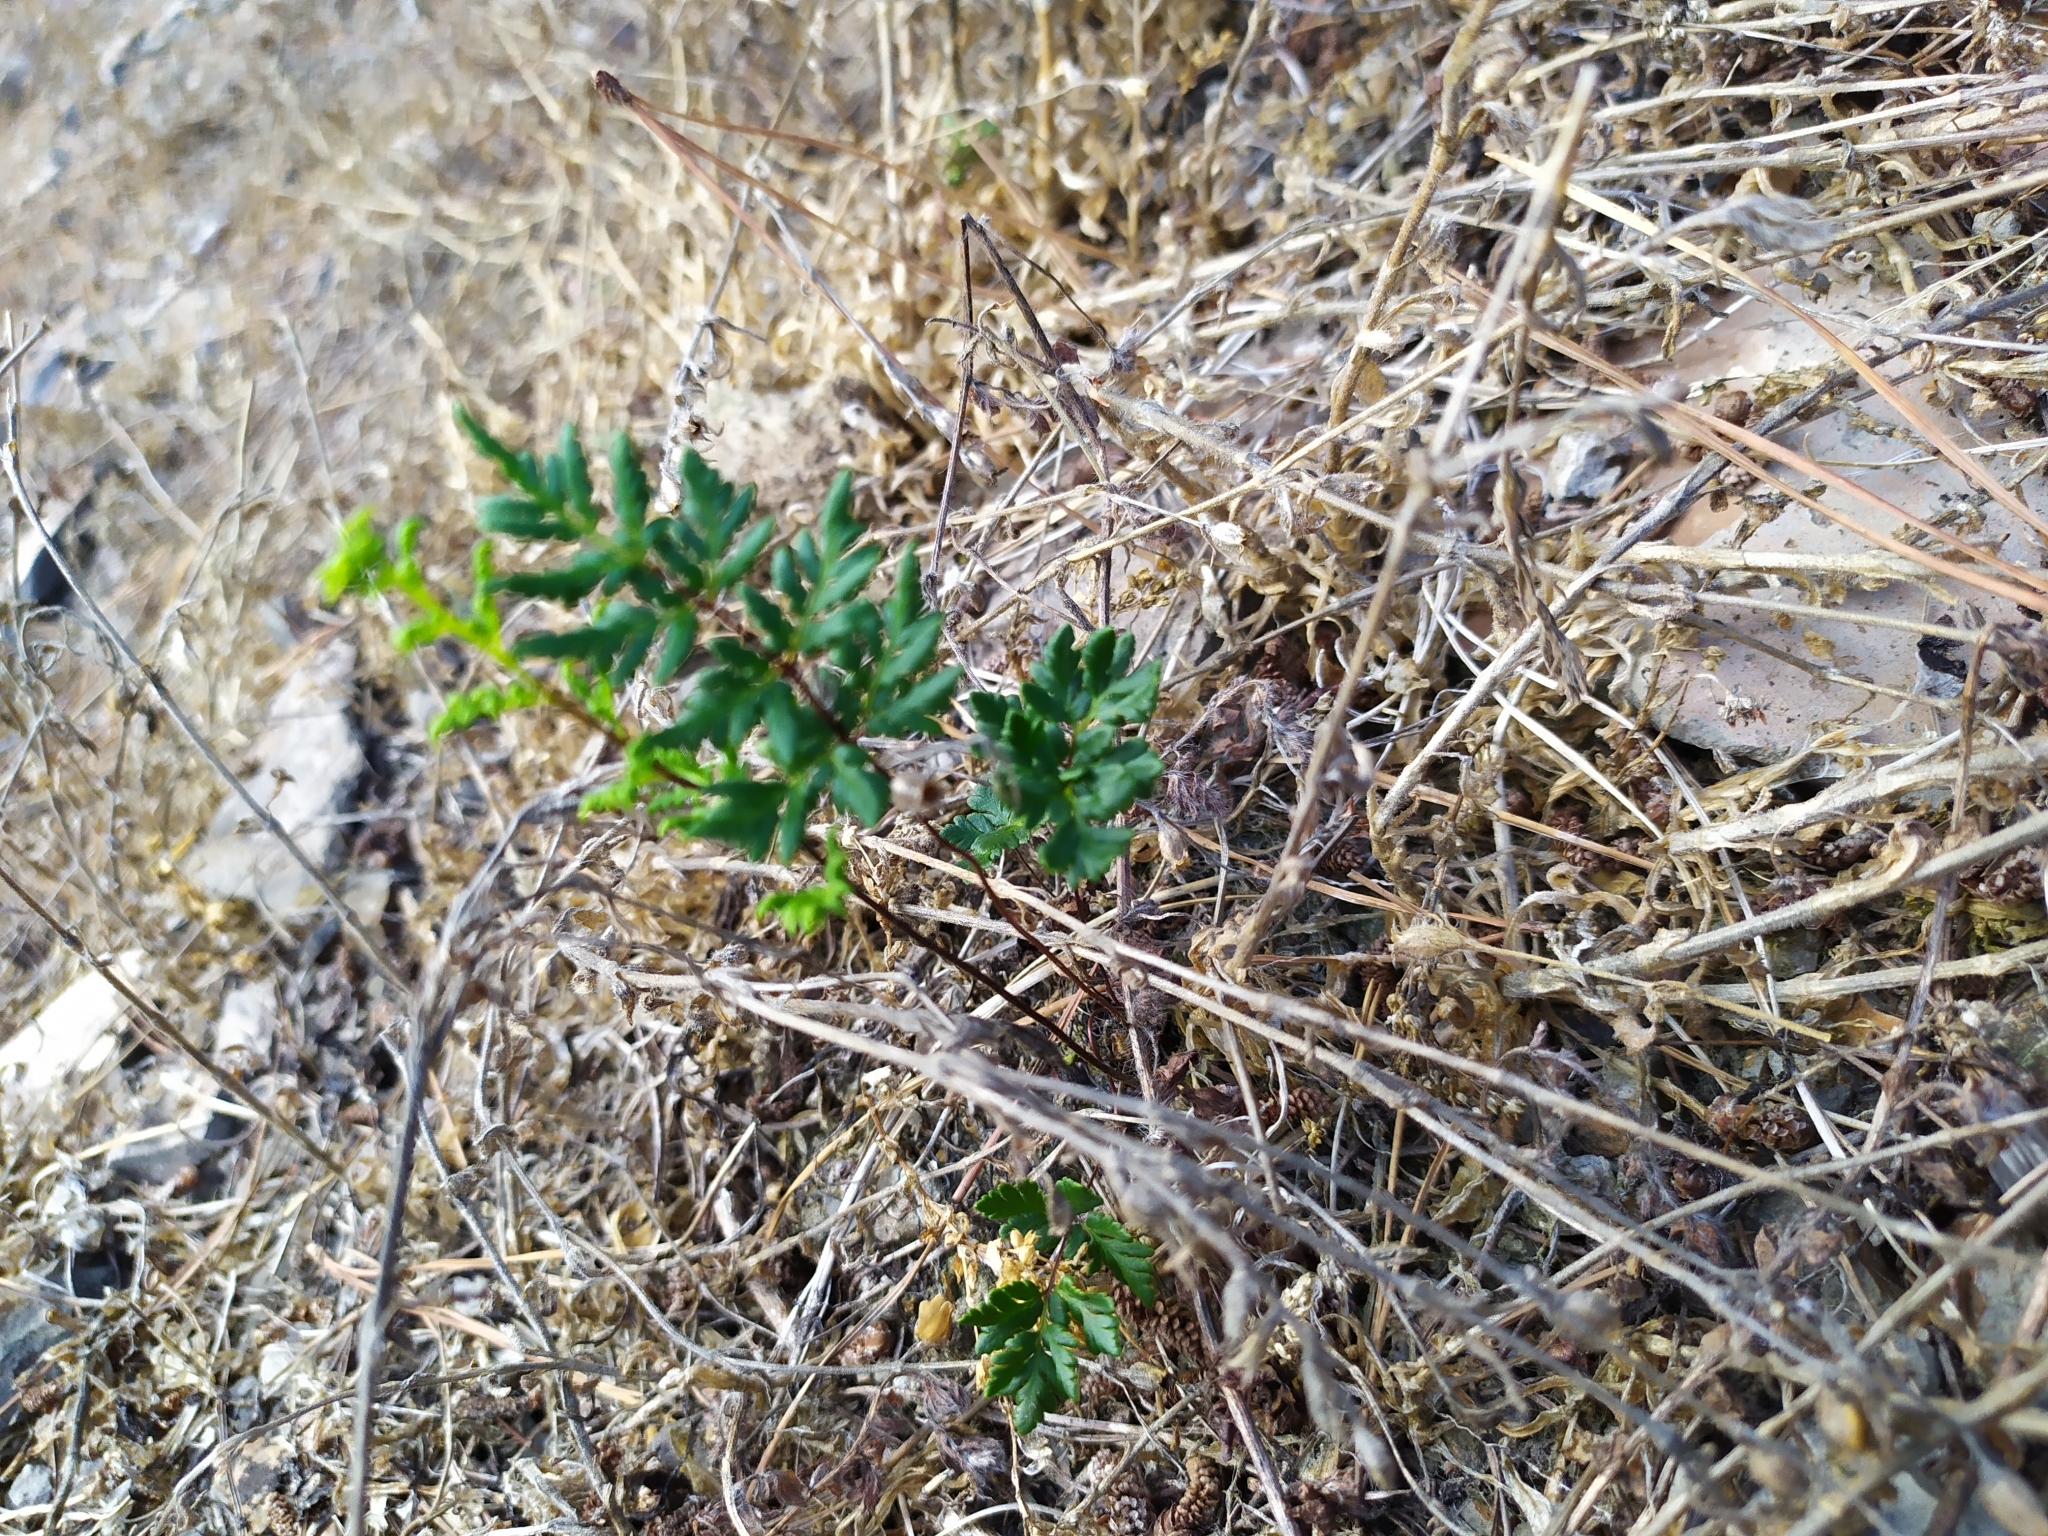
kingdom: Plantae
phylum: Tracheophyta
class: Polypodiopsida
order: Polypodiales
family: Pteridaceae
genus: Cheilanthes
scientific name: Cheilanthes sieberi
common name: Mulga fern
